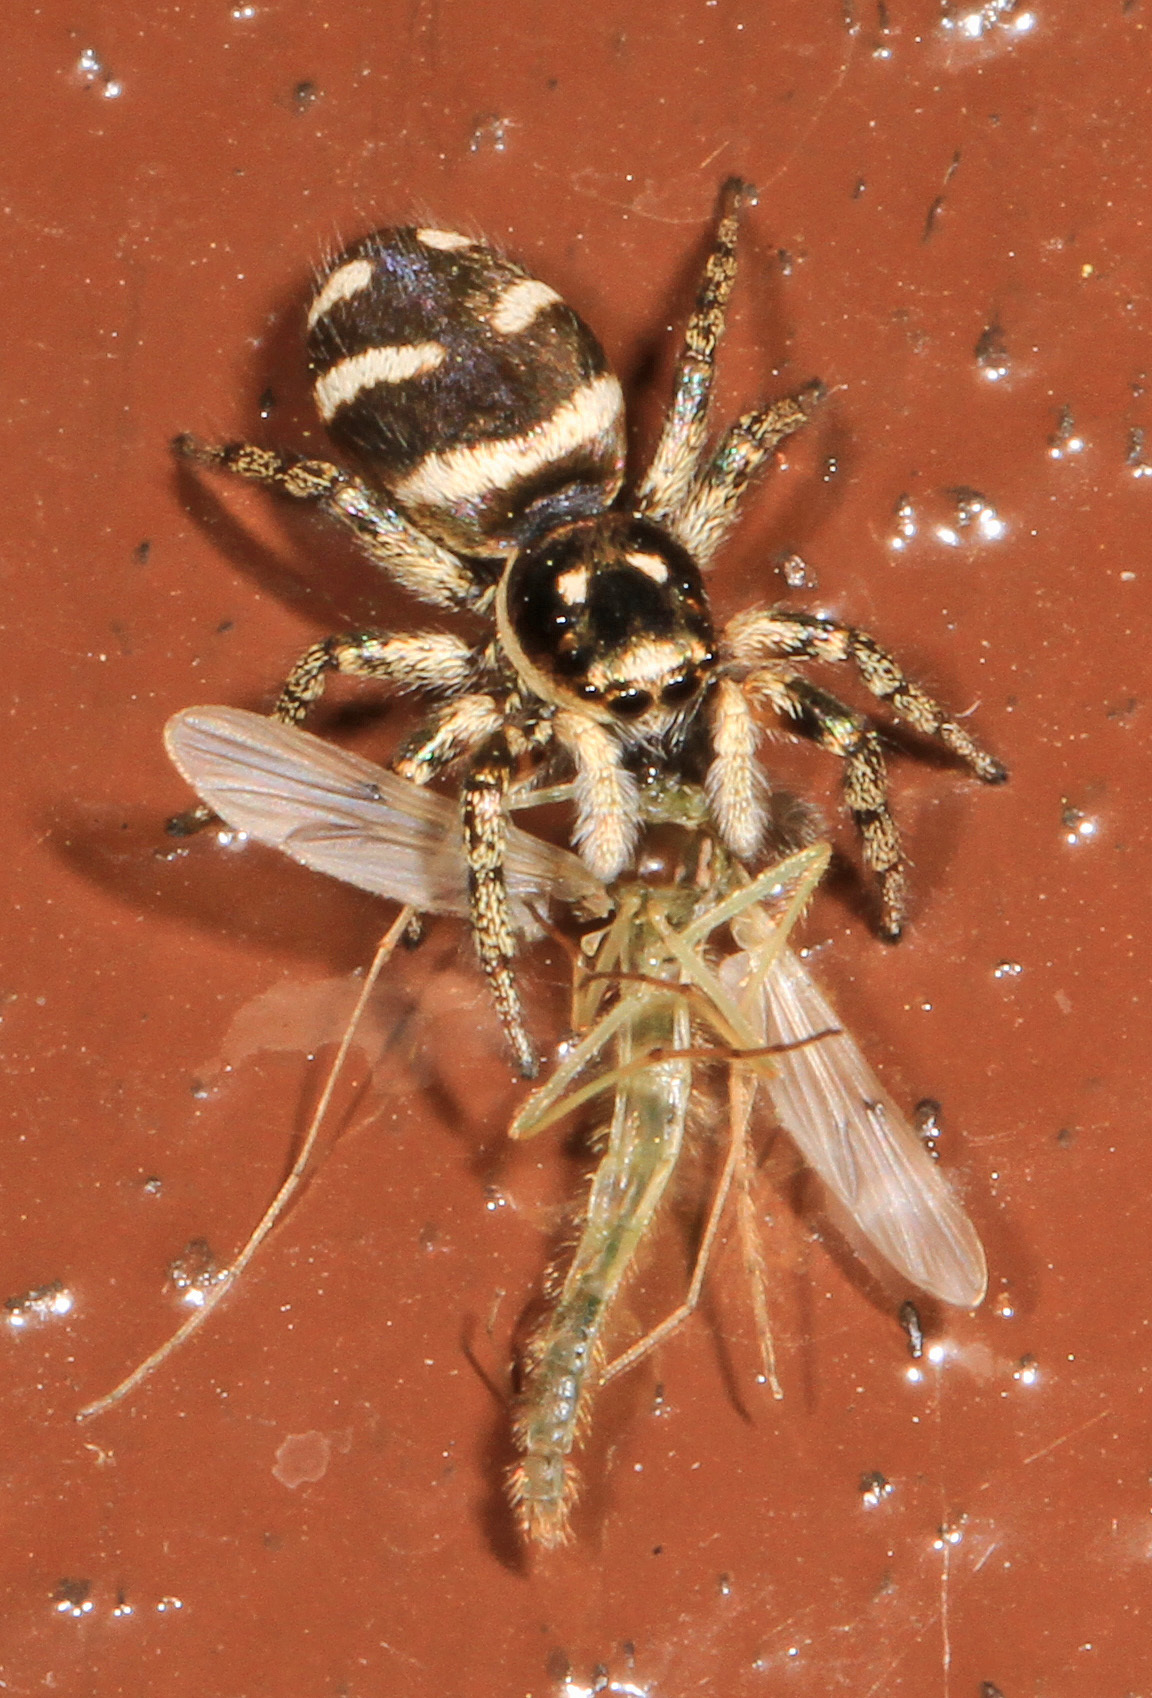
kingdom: Animalia
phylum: Arthropoda
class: Arachnida
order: Araneae
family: Salticidae
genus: Salticus
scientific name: Salticus scenicus
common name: Zebra jumper
